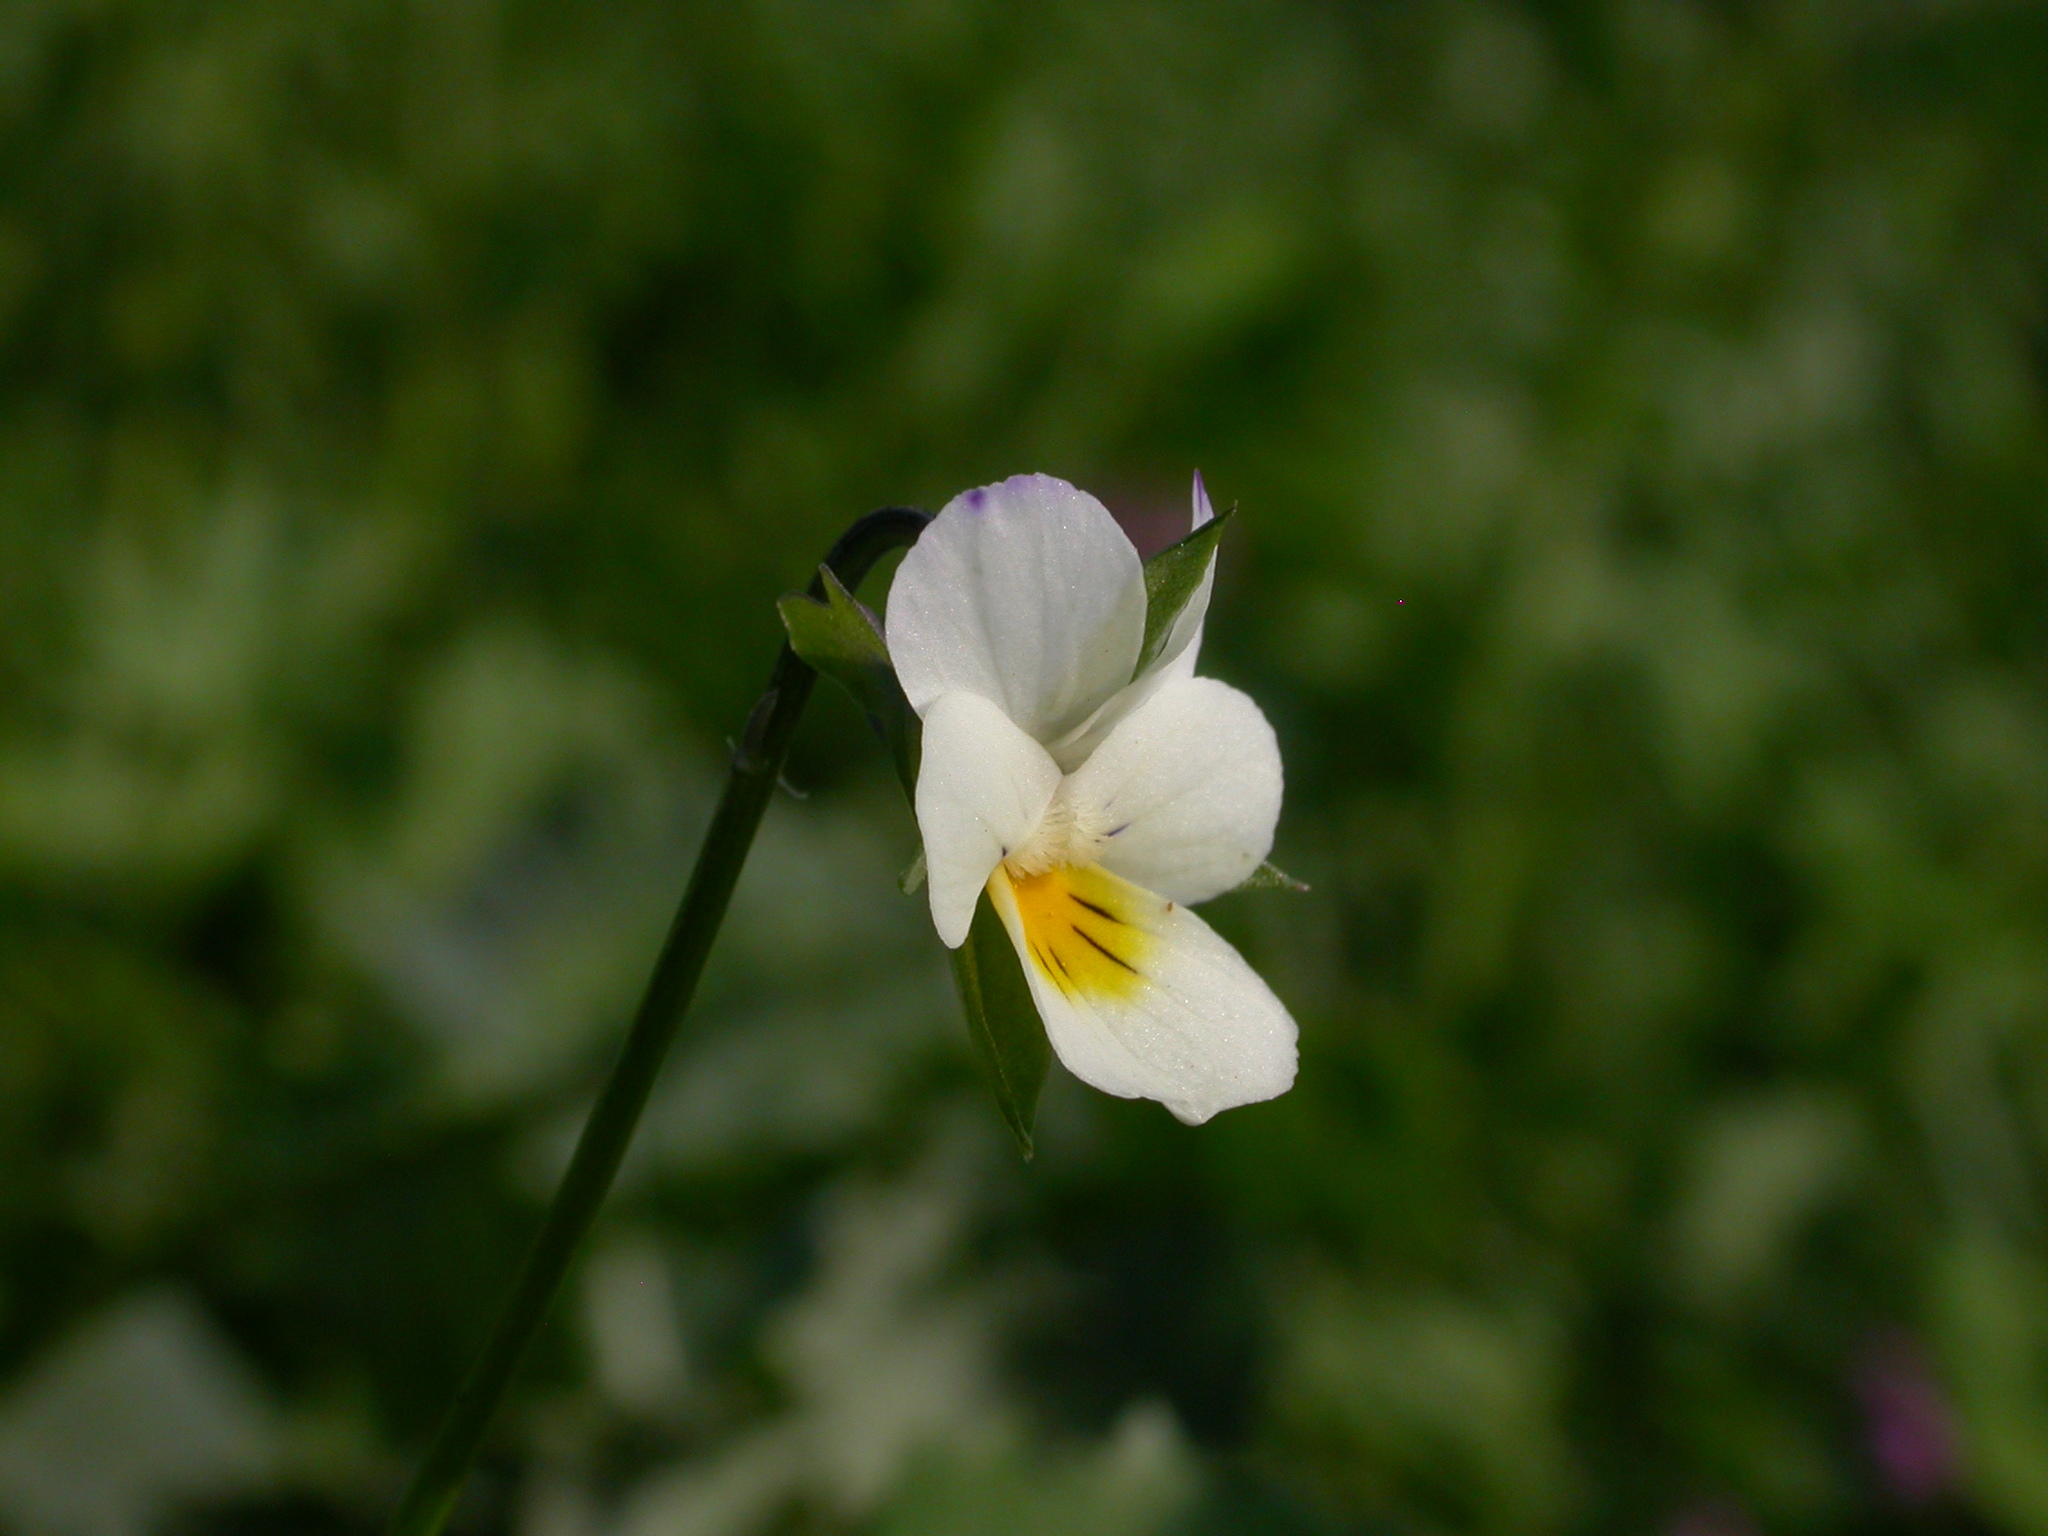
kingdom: Plantae
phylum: Tracheophyta
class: Magnoliopsida
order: Malpighiales
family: Violaceae
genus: Viola
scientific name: Viola arvensis
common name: Field pansy
